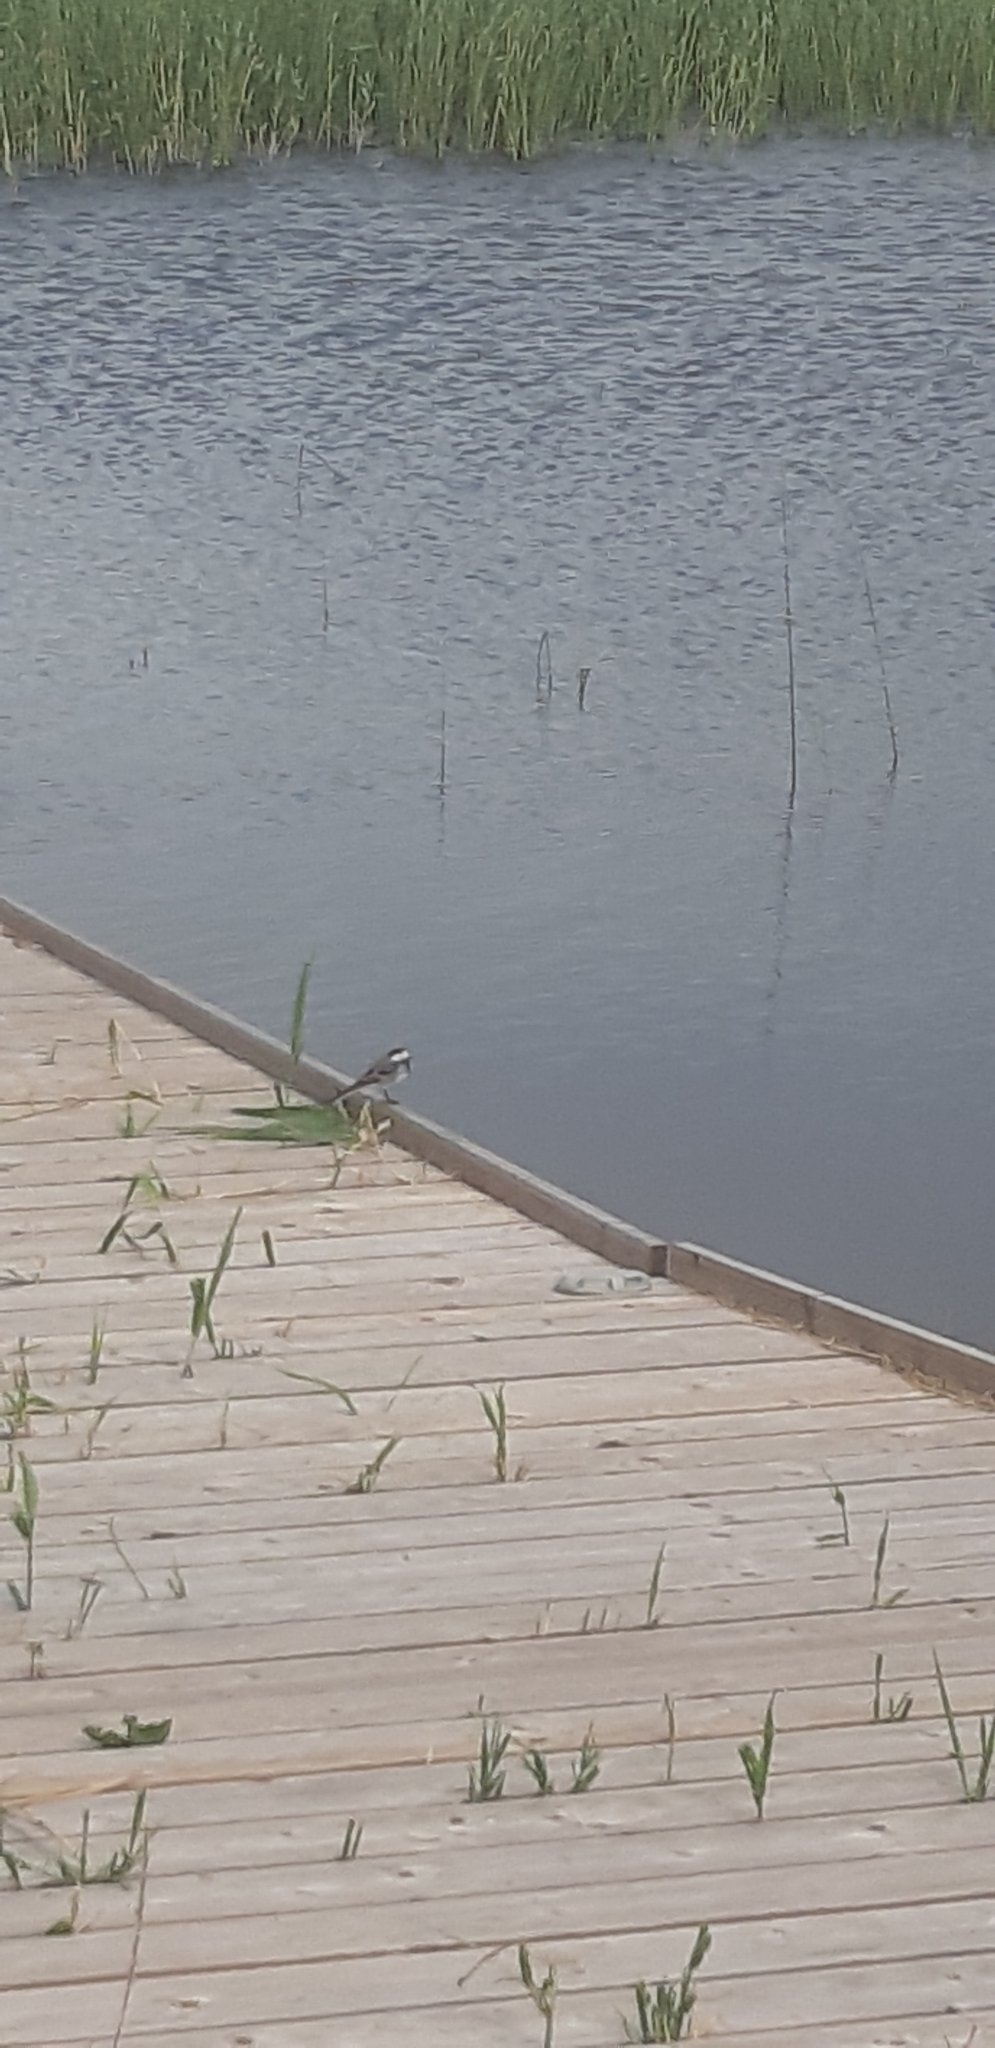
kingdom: Animalia
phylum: Chordata
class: Aves
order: Passeriformes
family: Motacillidae
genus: Motacilla
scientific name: Motacilla alba
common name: White wagtail
